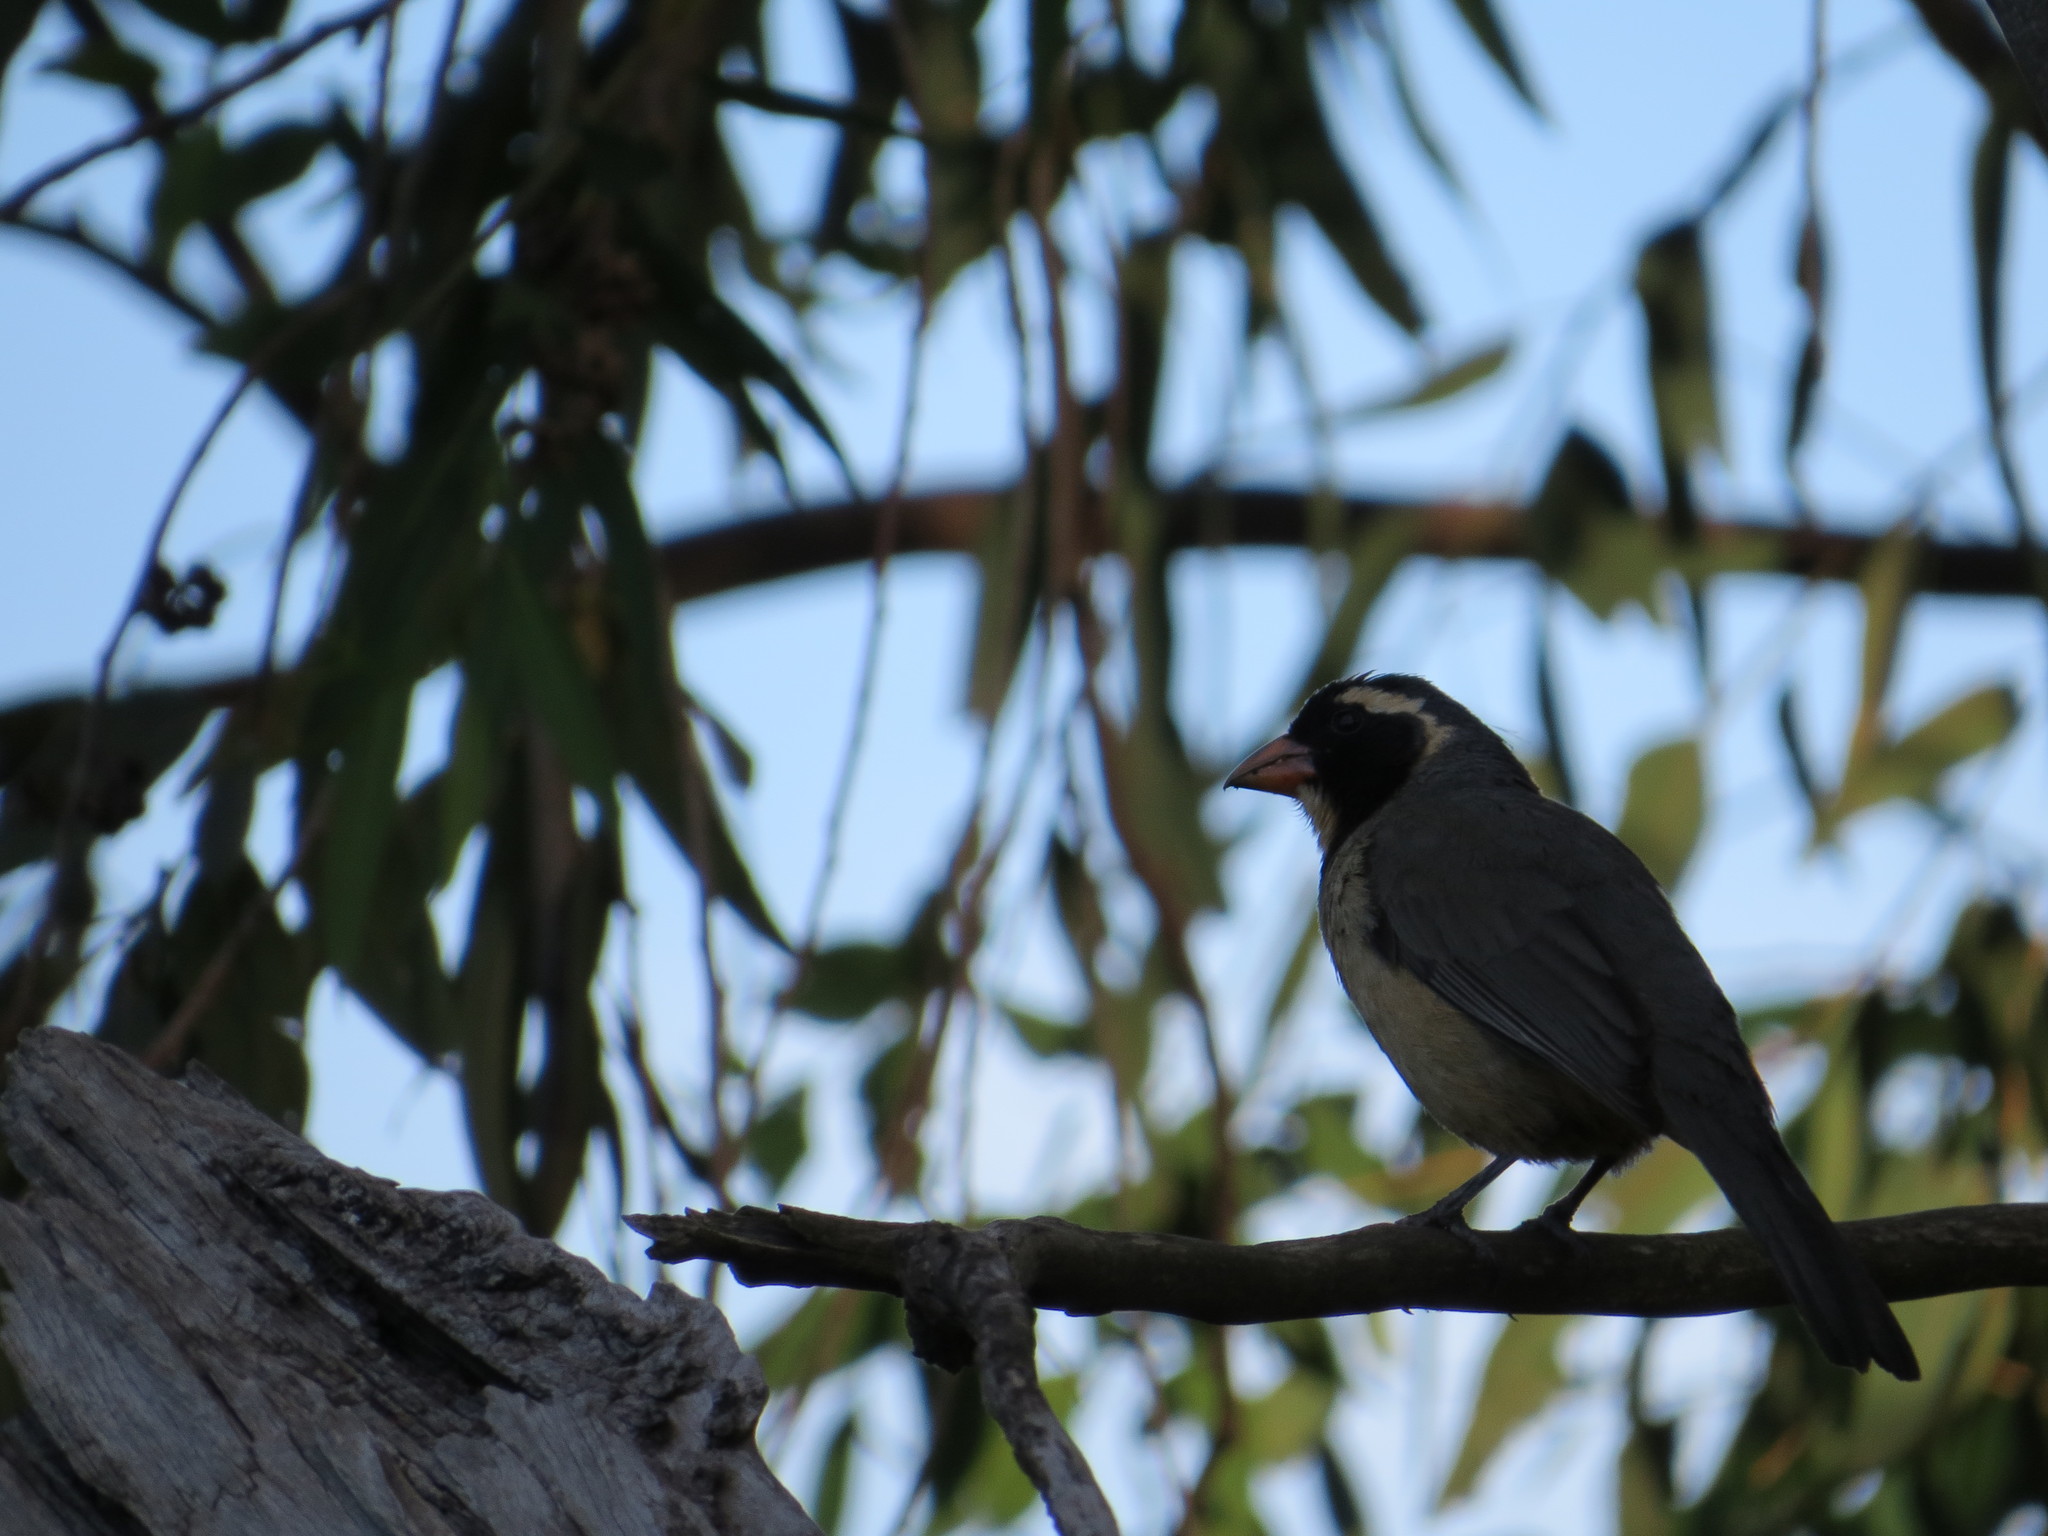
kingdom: Animalia
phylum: Chordata
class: Aves
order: Passeriformes
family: Thraupidae
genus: Saltator
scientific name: Saltator aurantiirostris
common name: Golden-billed saltator
